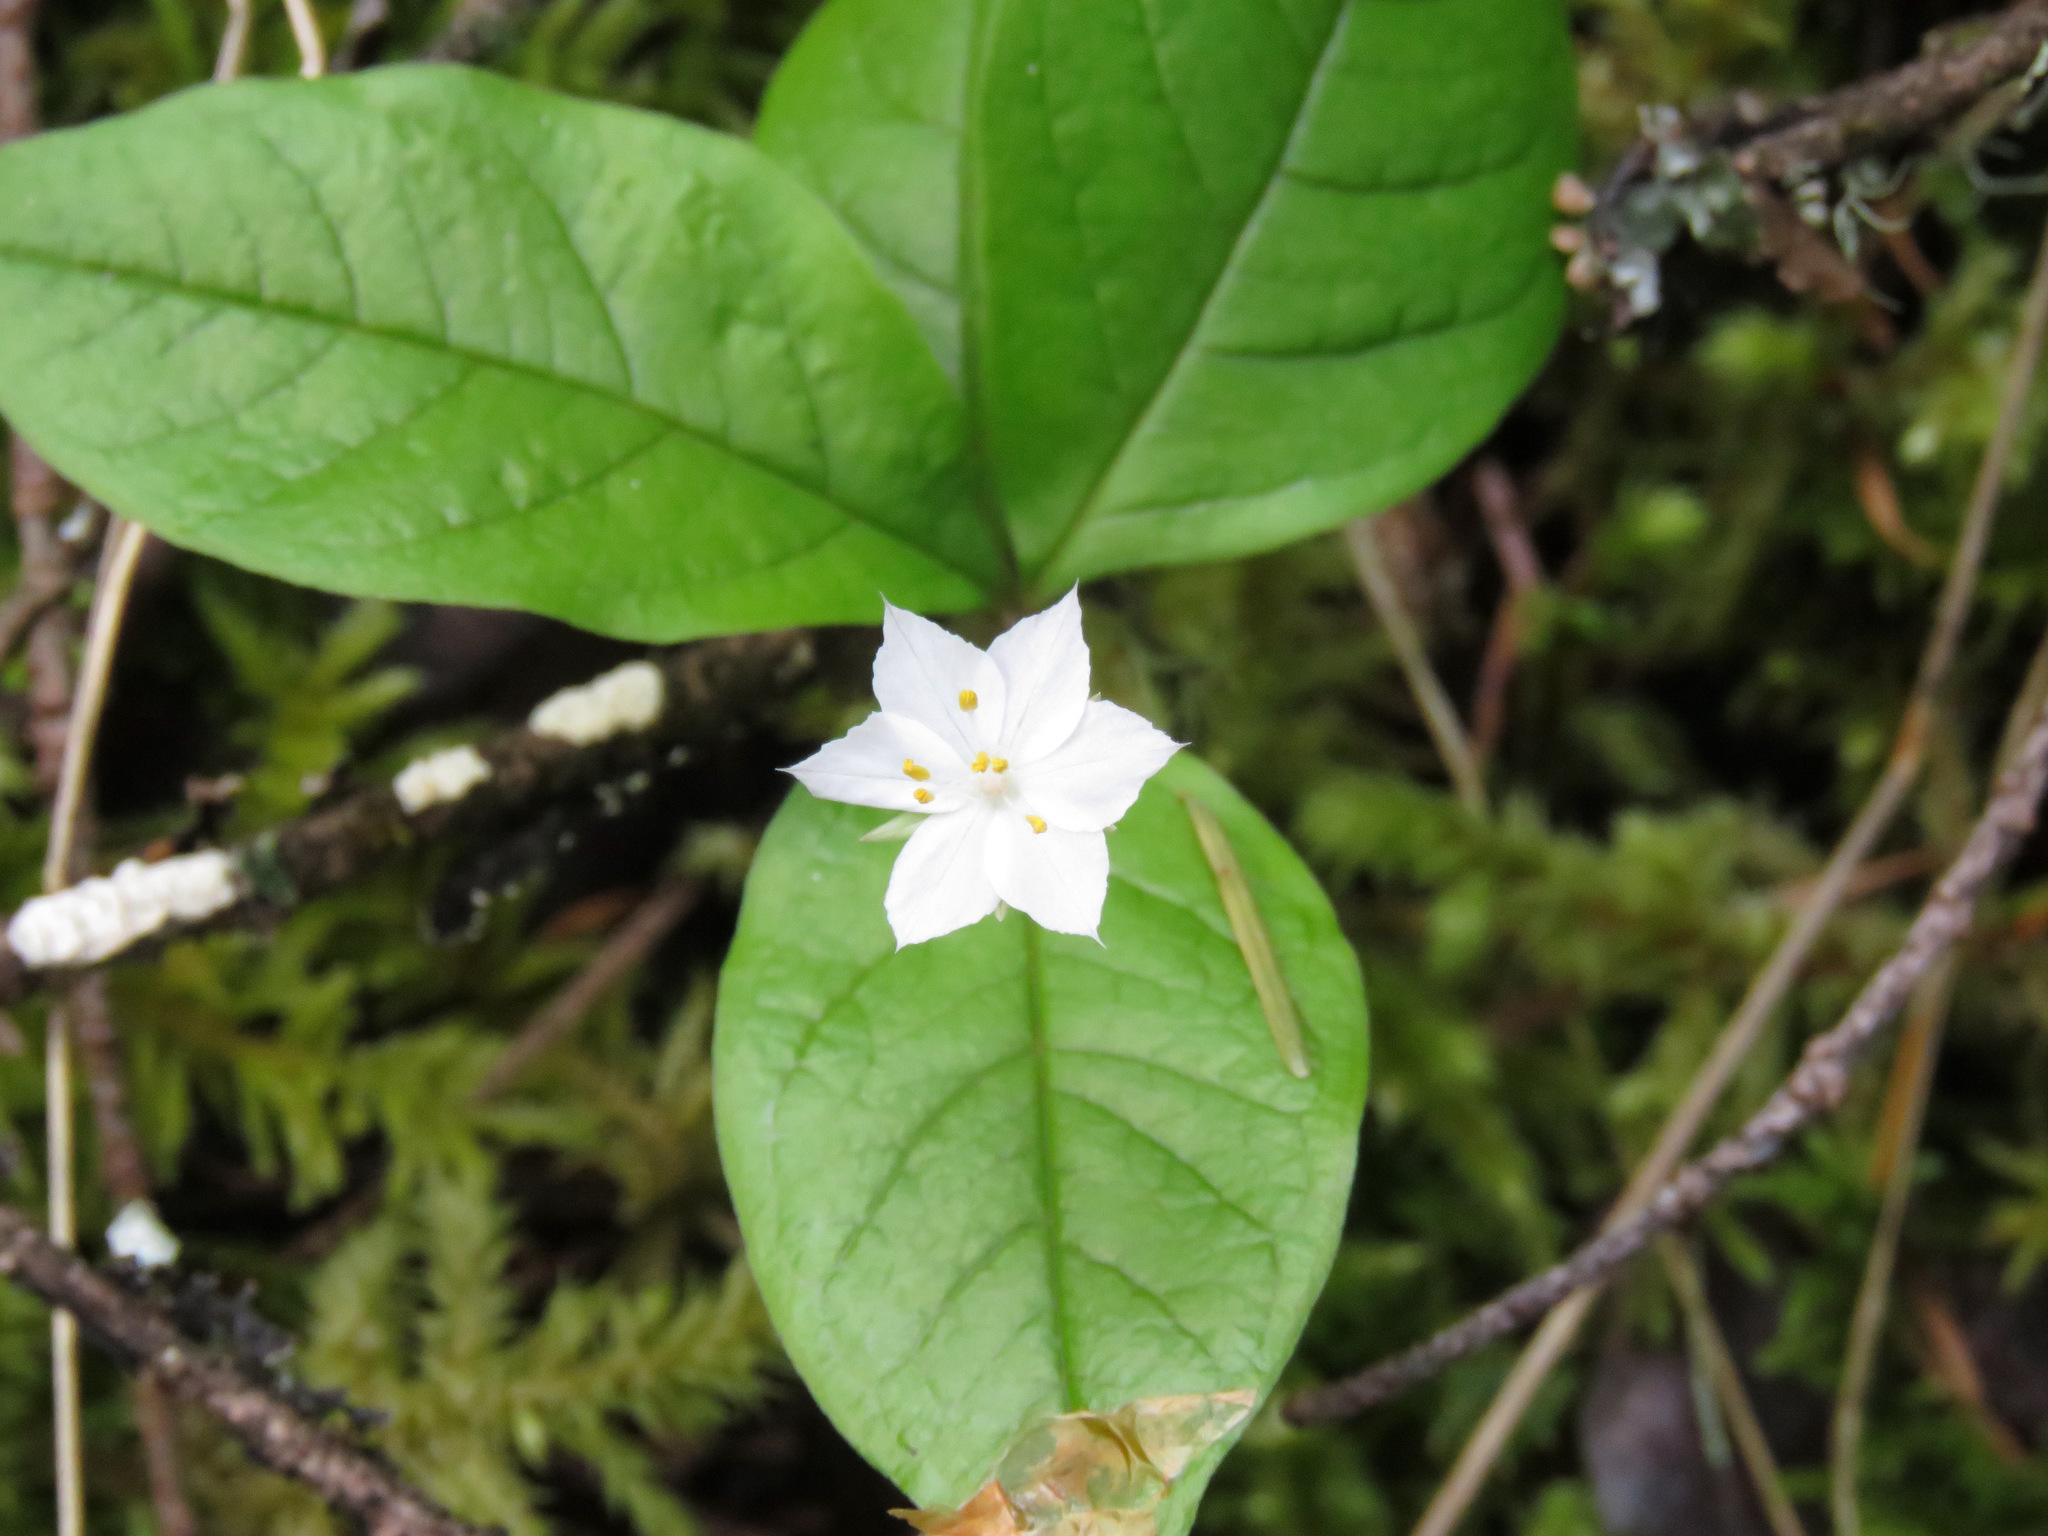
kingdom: Plantae
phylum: Tracheophyta
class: Magnoliopsida
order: Ericales
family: Primulaceae
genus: Lysimachia
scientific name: Lysimachia latifolia
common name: Pacific starflower
